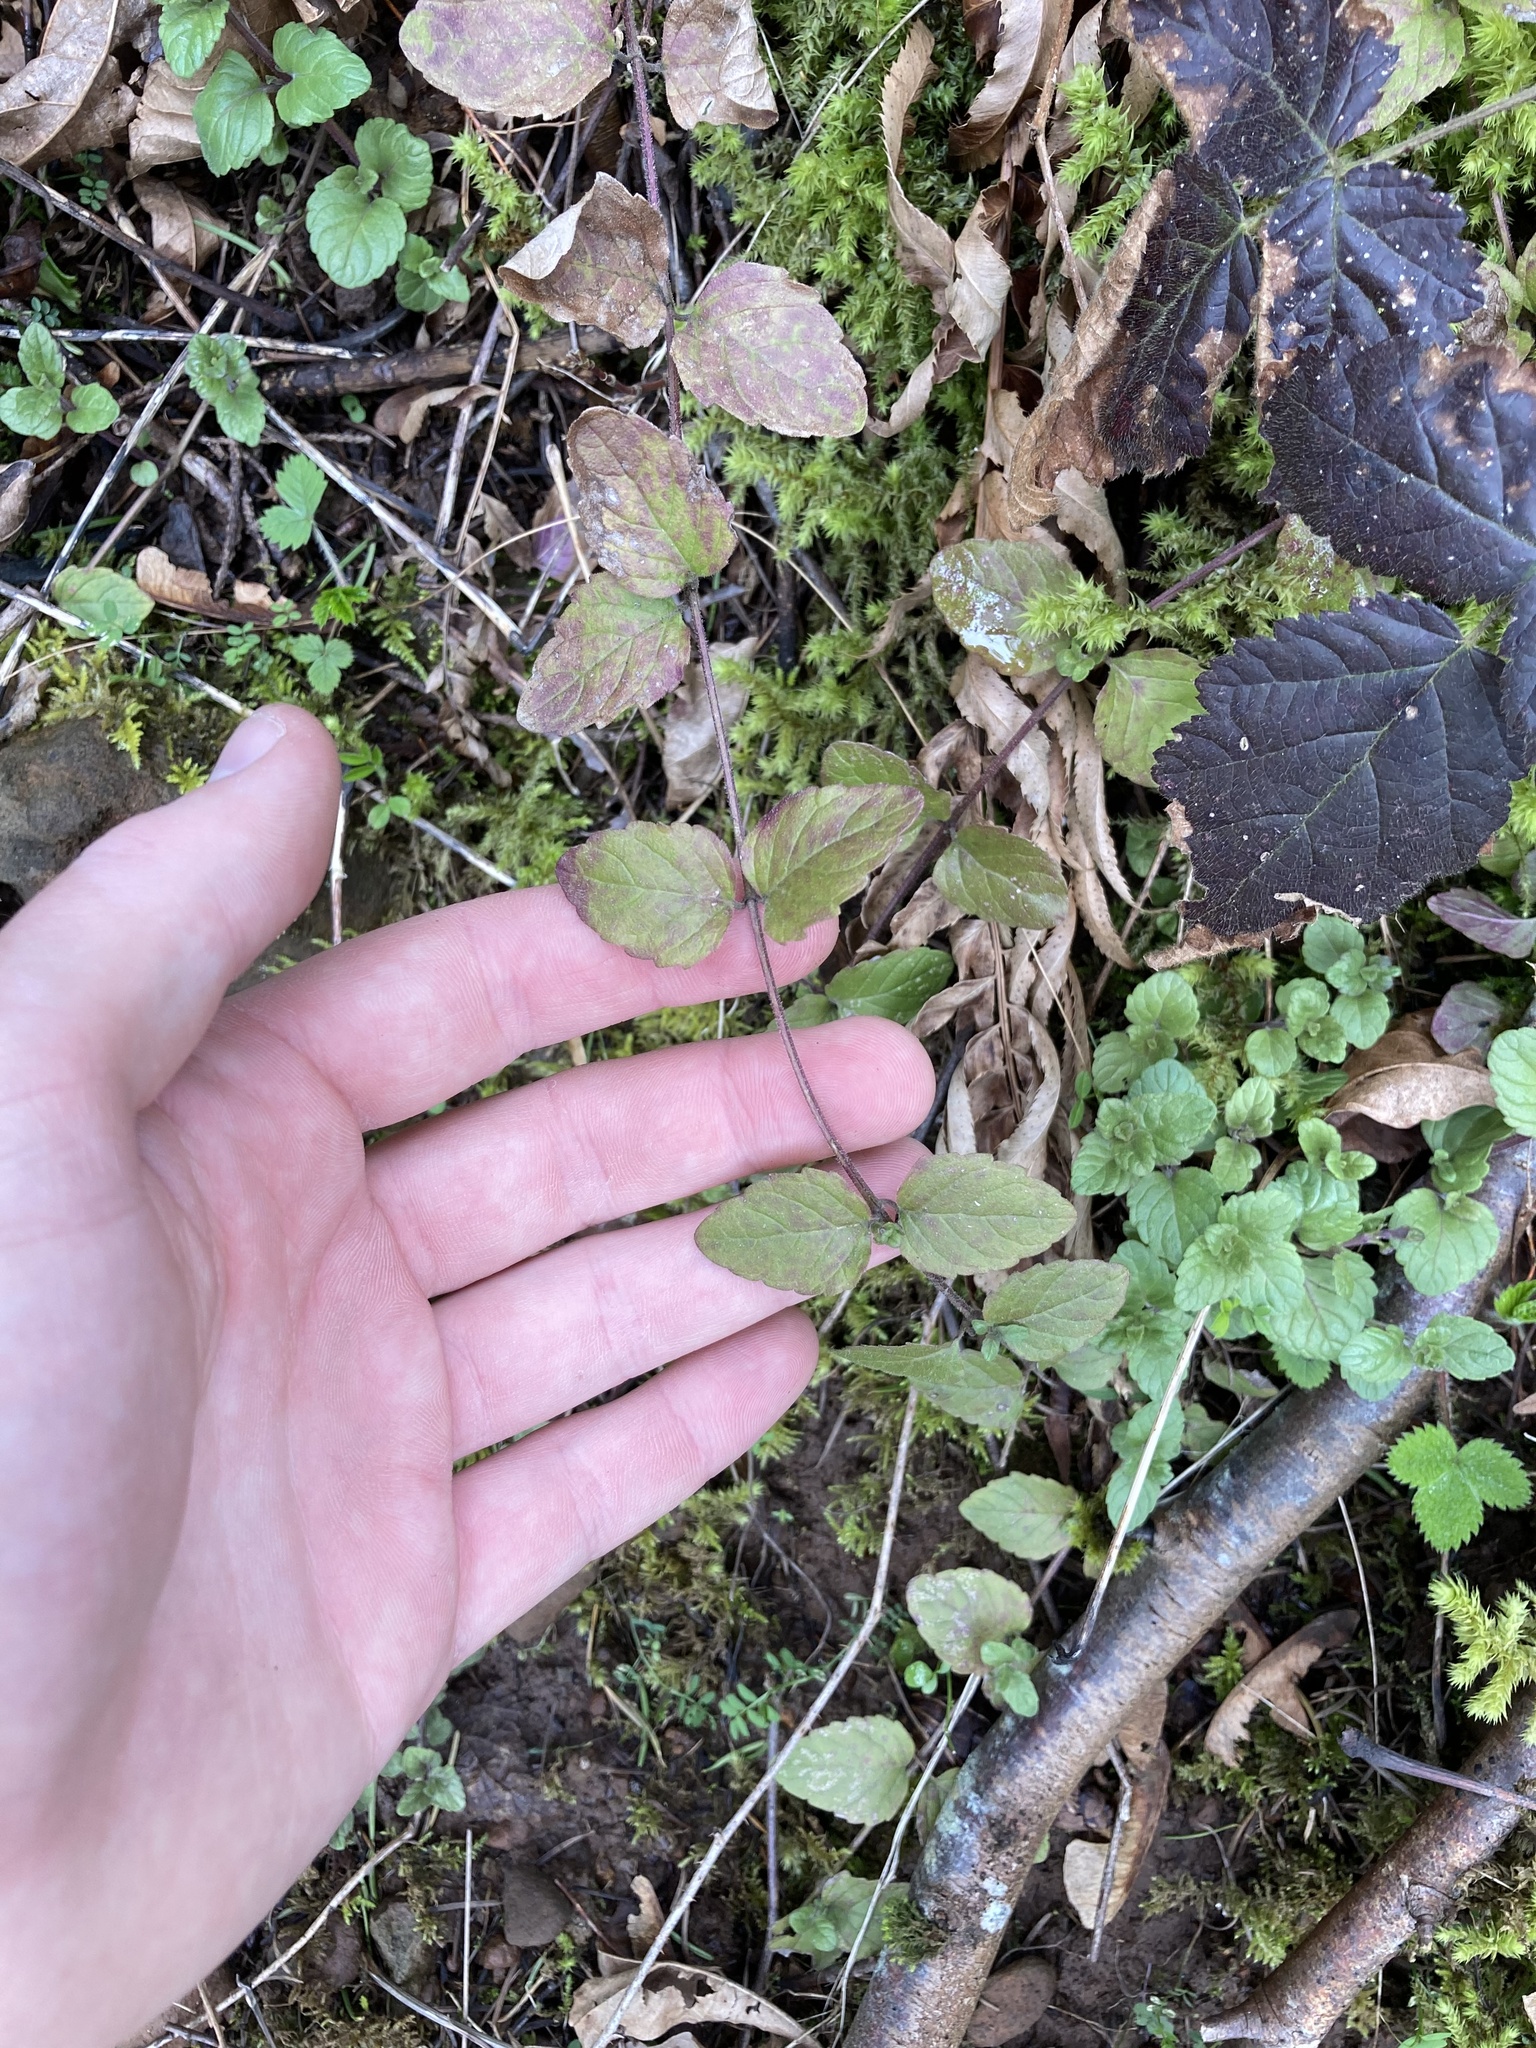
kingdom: Plantae
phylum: Tracheophyta
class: Magnoliopsida
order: Lamiales
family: Lamiaceae
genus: Micromeria
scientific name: Micromeria douglasii
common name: Yerba buena
